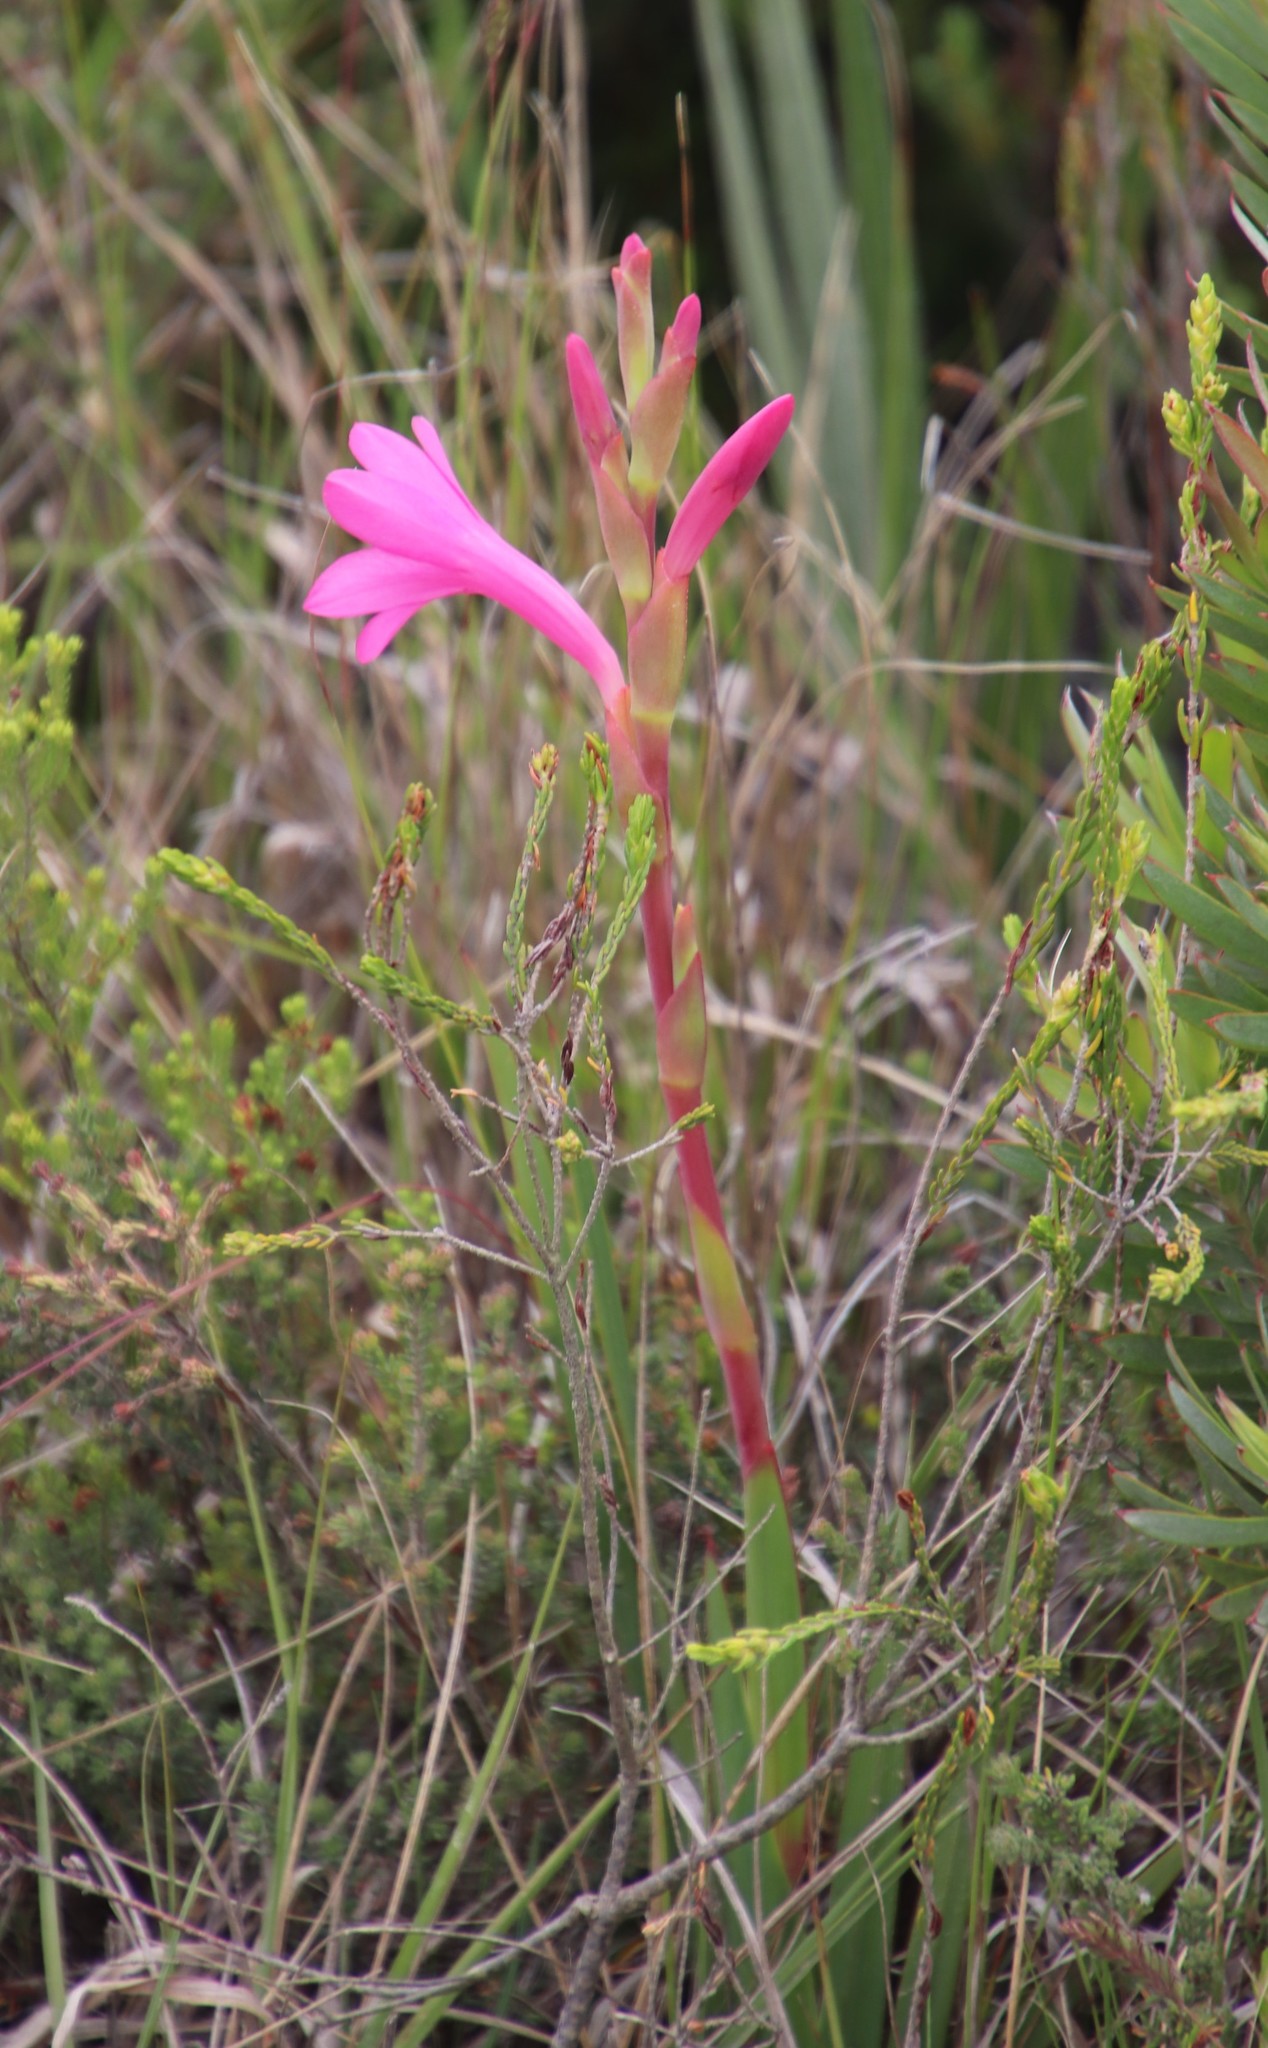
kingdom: Plantae
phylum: Tracheophyta
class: Liliopsida
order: Asparagales
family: Iridaceae
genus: Watsonia
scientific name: Watsonia coccinea
